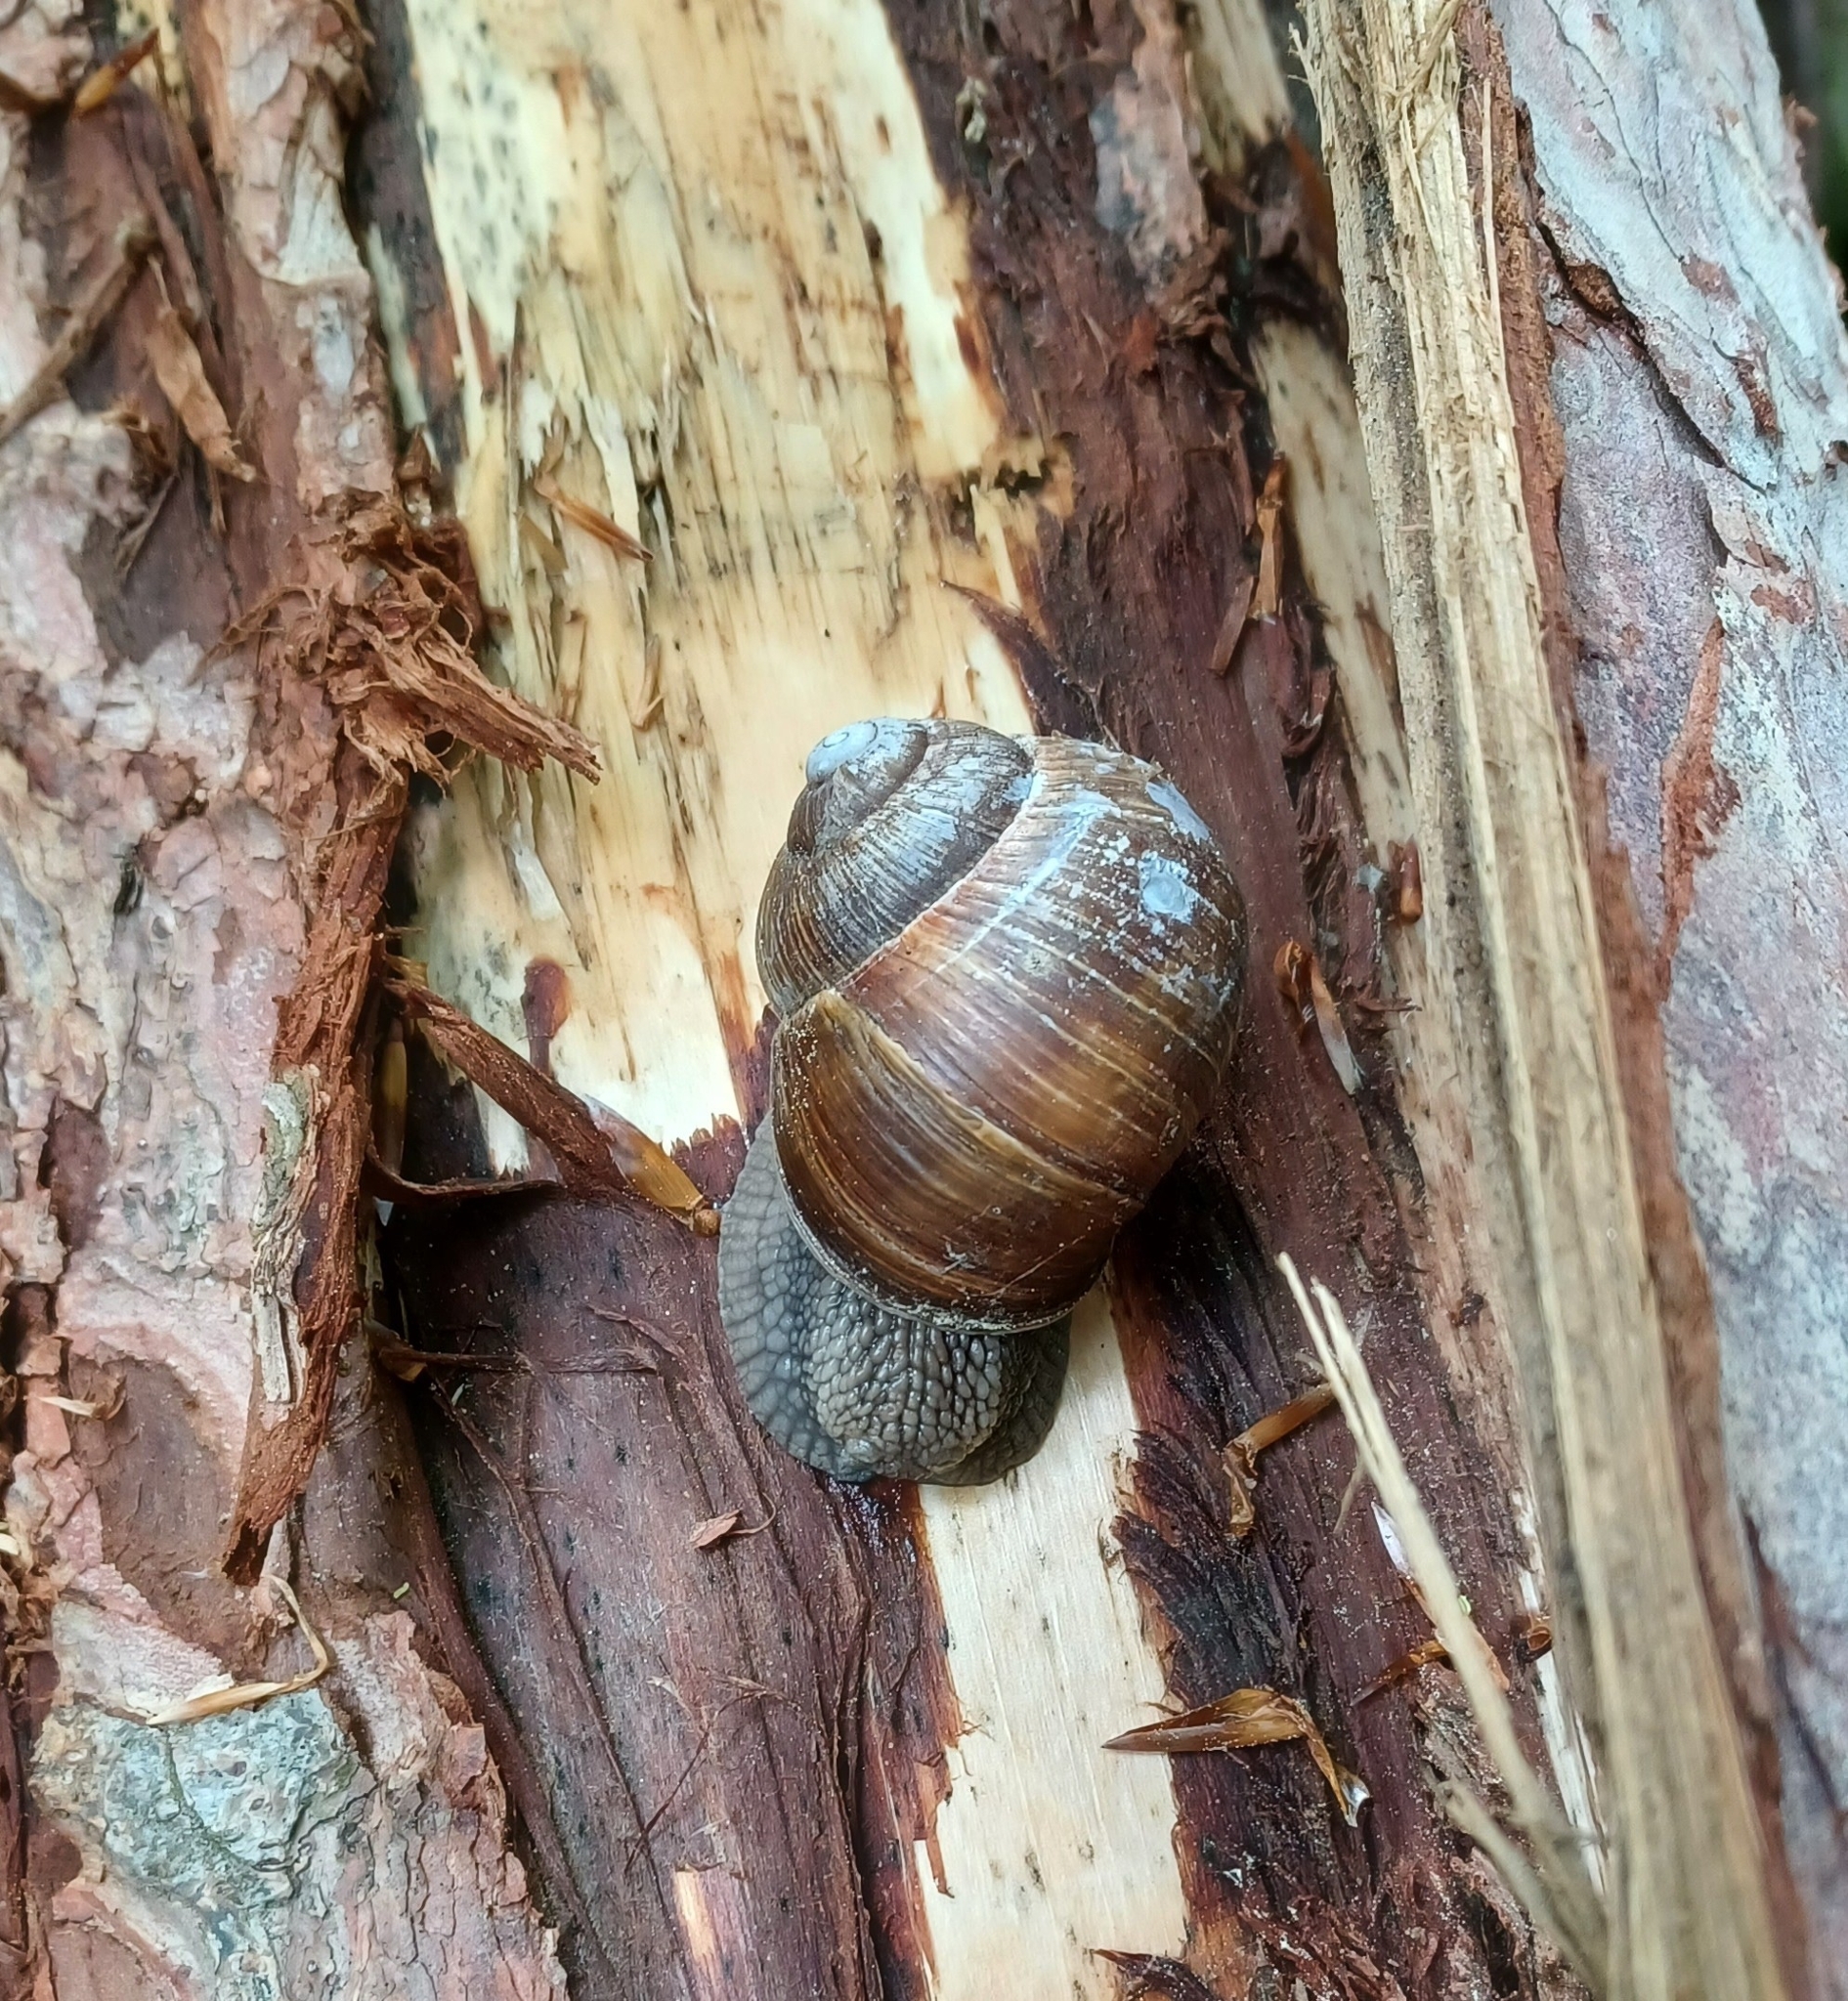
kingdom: Animalia
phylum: Mollusca
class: Gastropoda
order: Stylommatophora
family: Helicidae
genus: Helix
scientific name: Helix pomatia
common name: Roman snail
